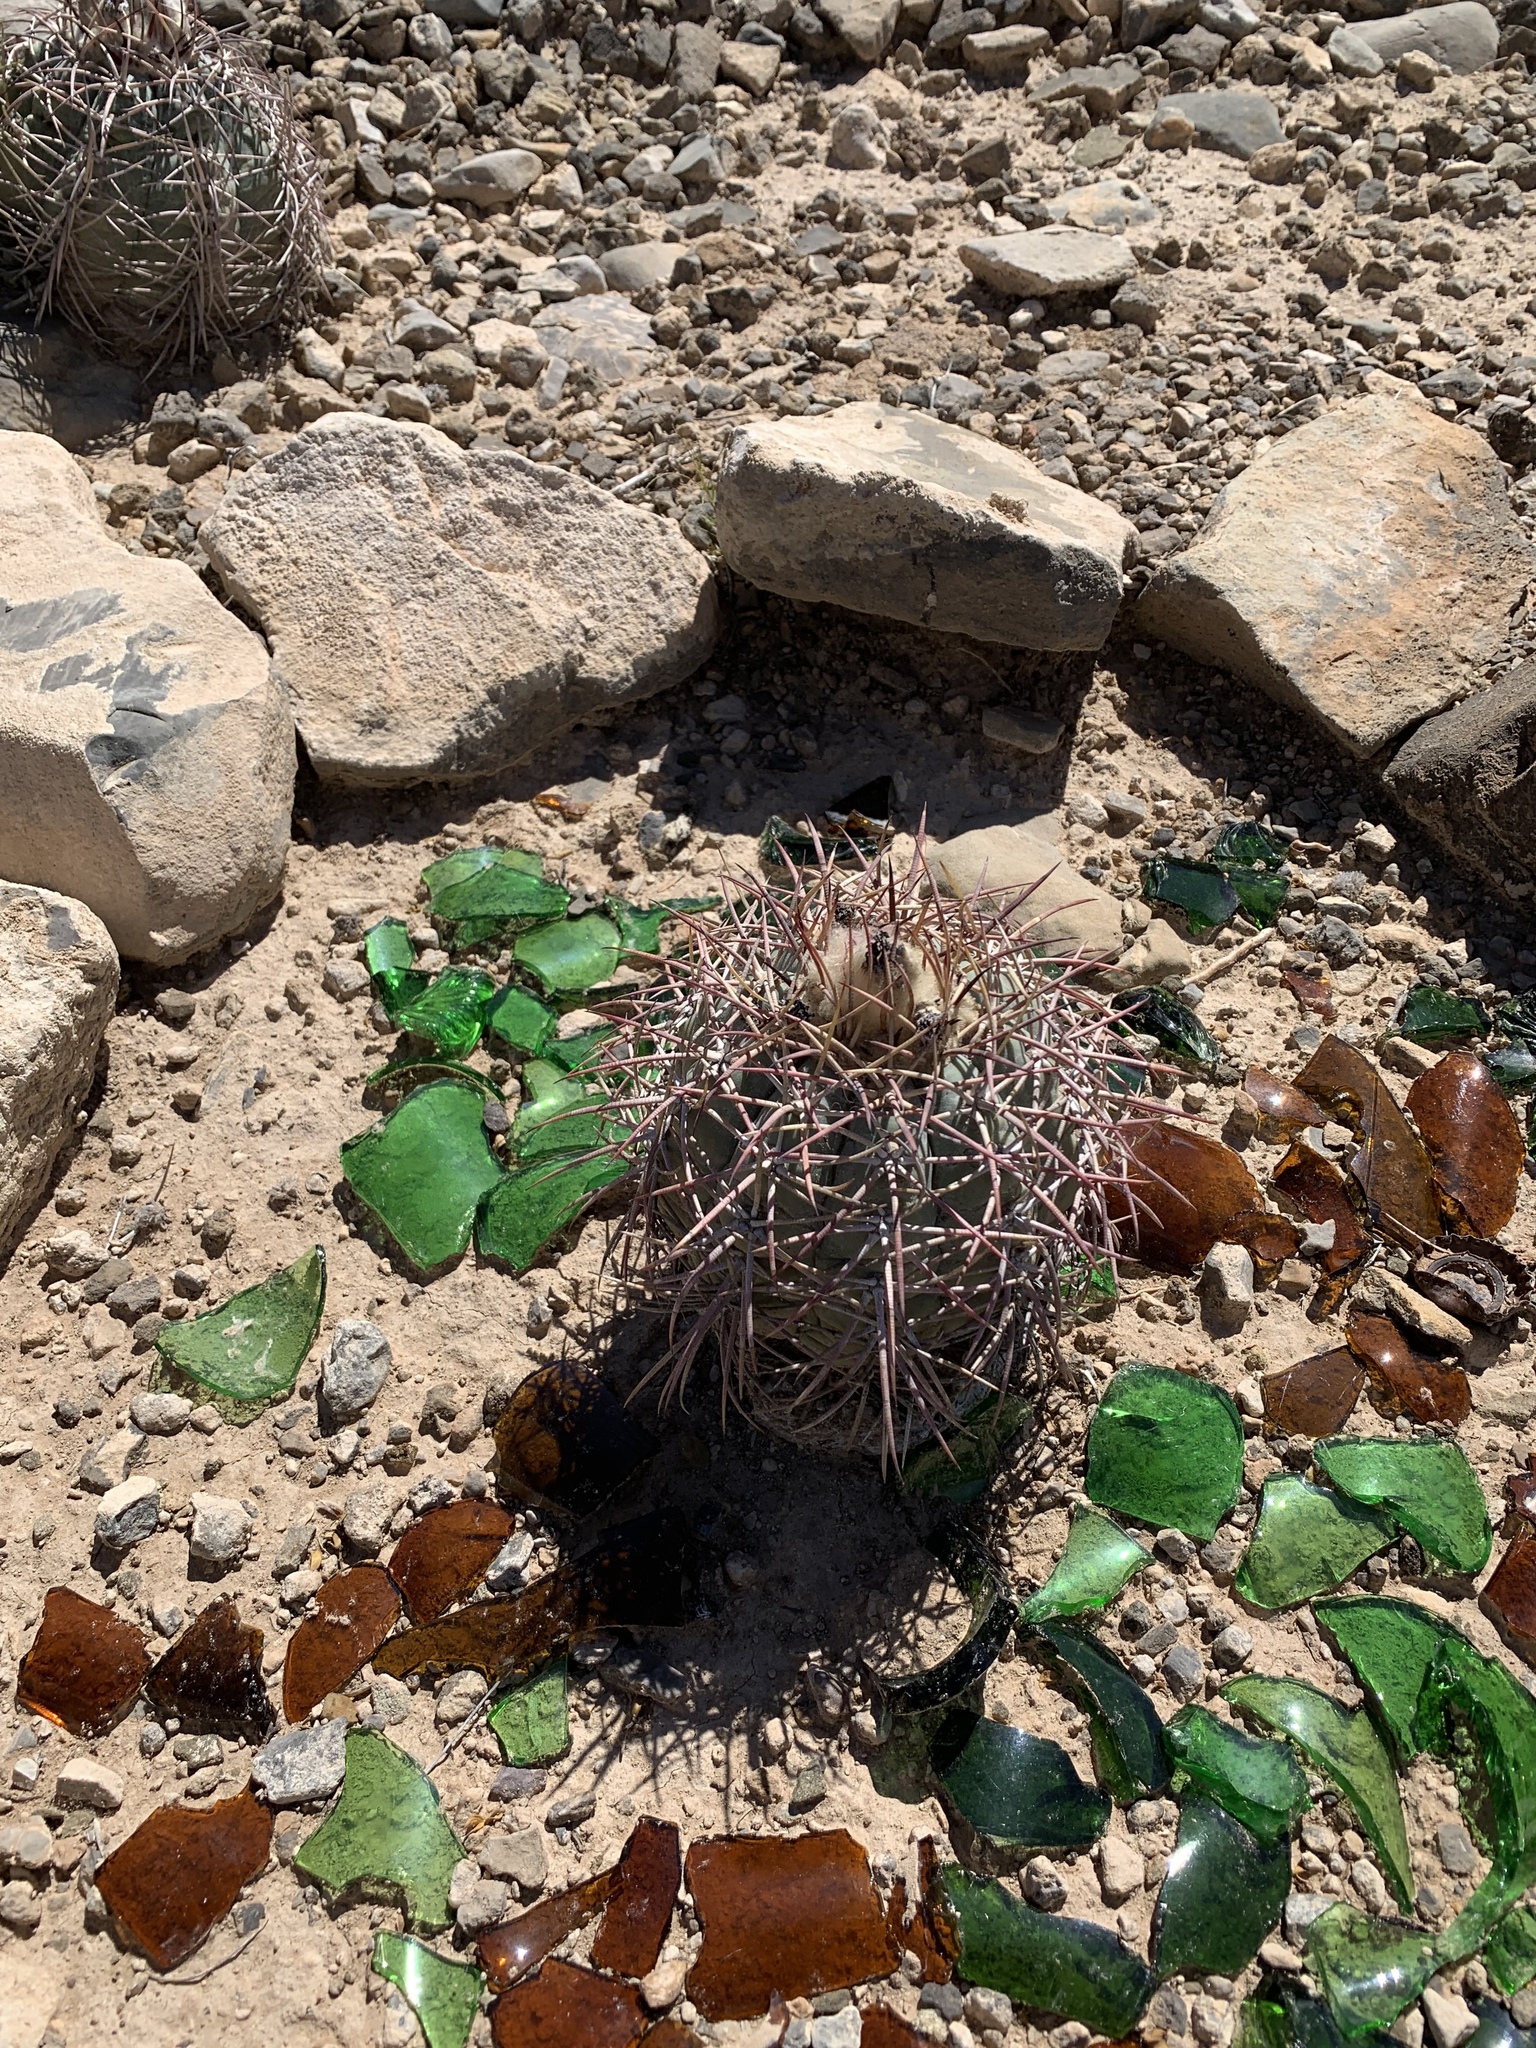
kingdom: Plantae
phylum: Tracheophyta
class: Magnoliopsida
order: Caryophyllales
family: Cactaceae
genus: Echinocactus
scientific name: Echinocactus horizonthalonius
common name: Devilshead
